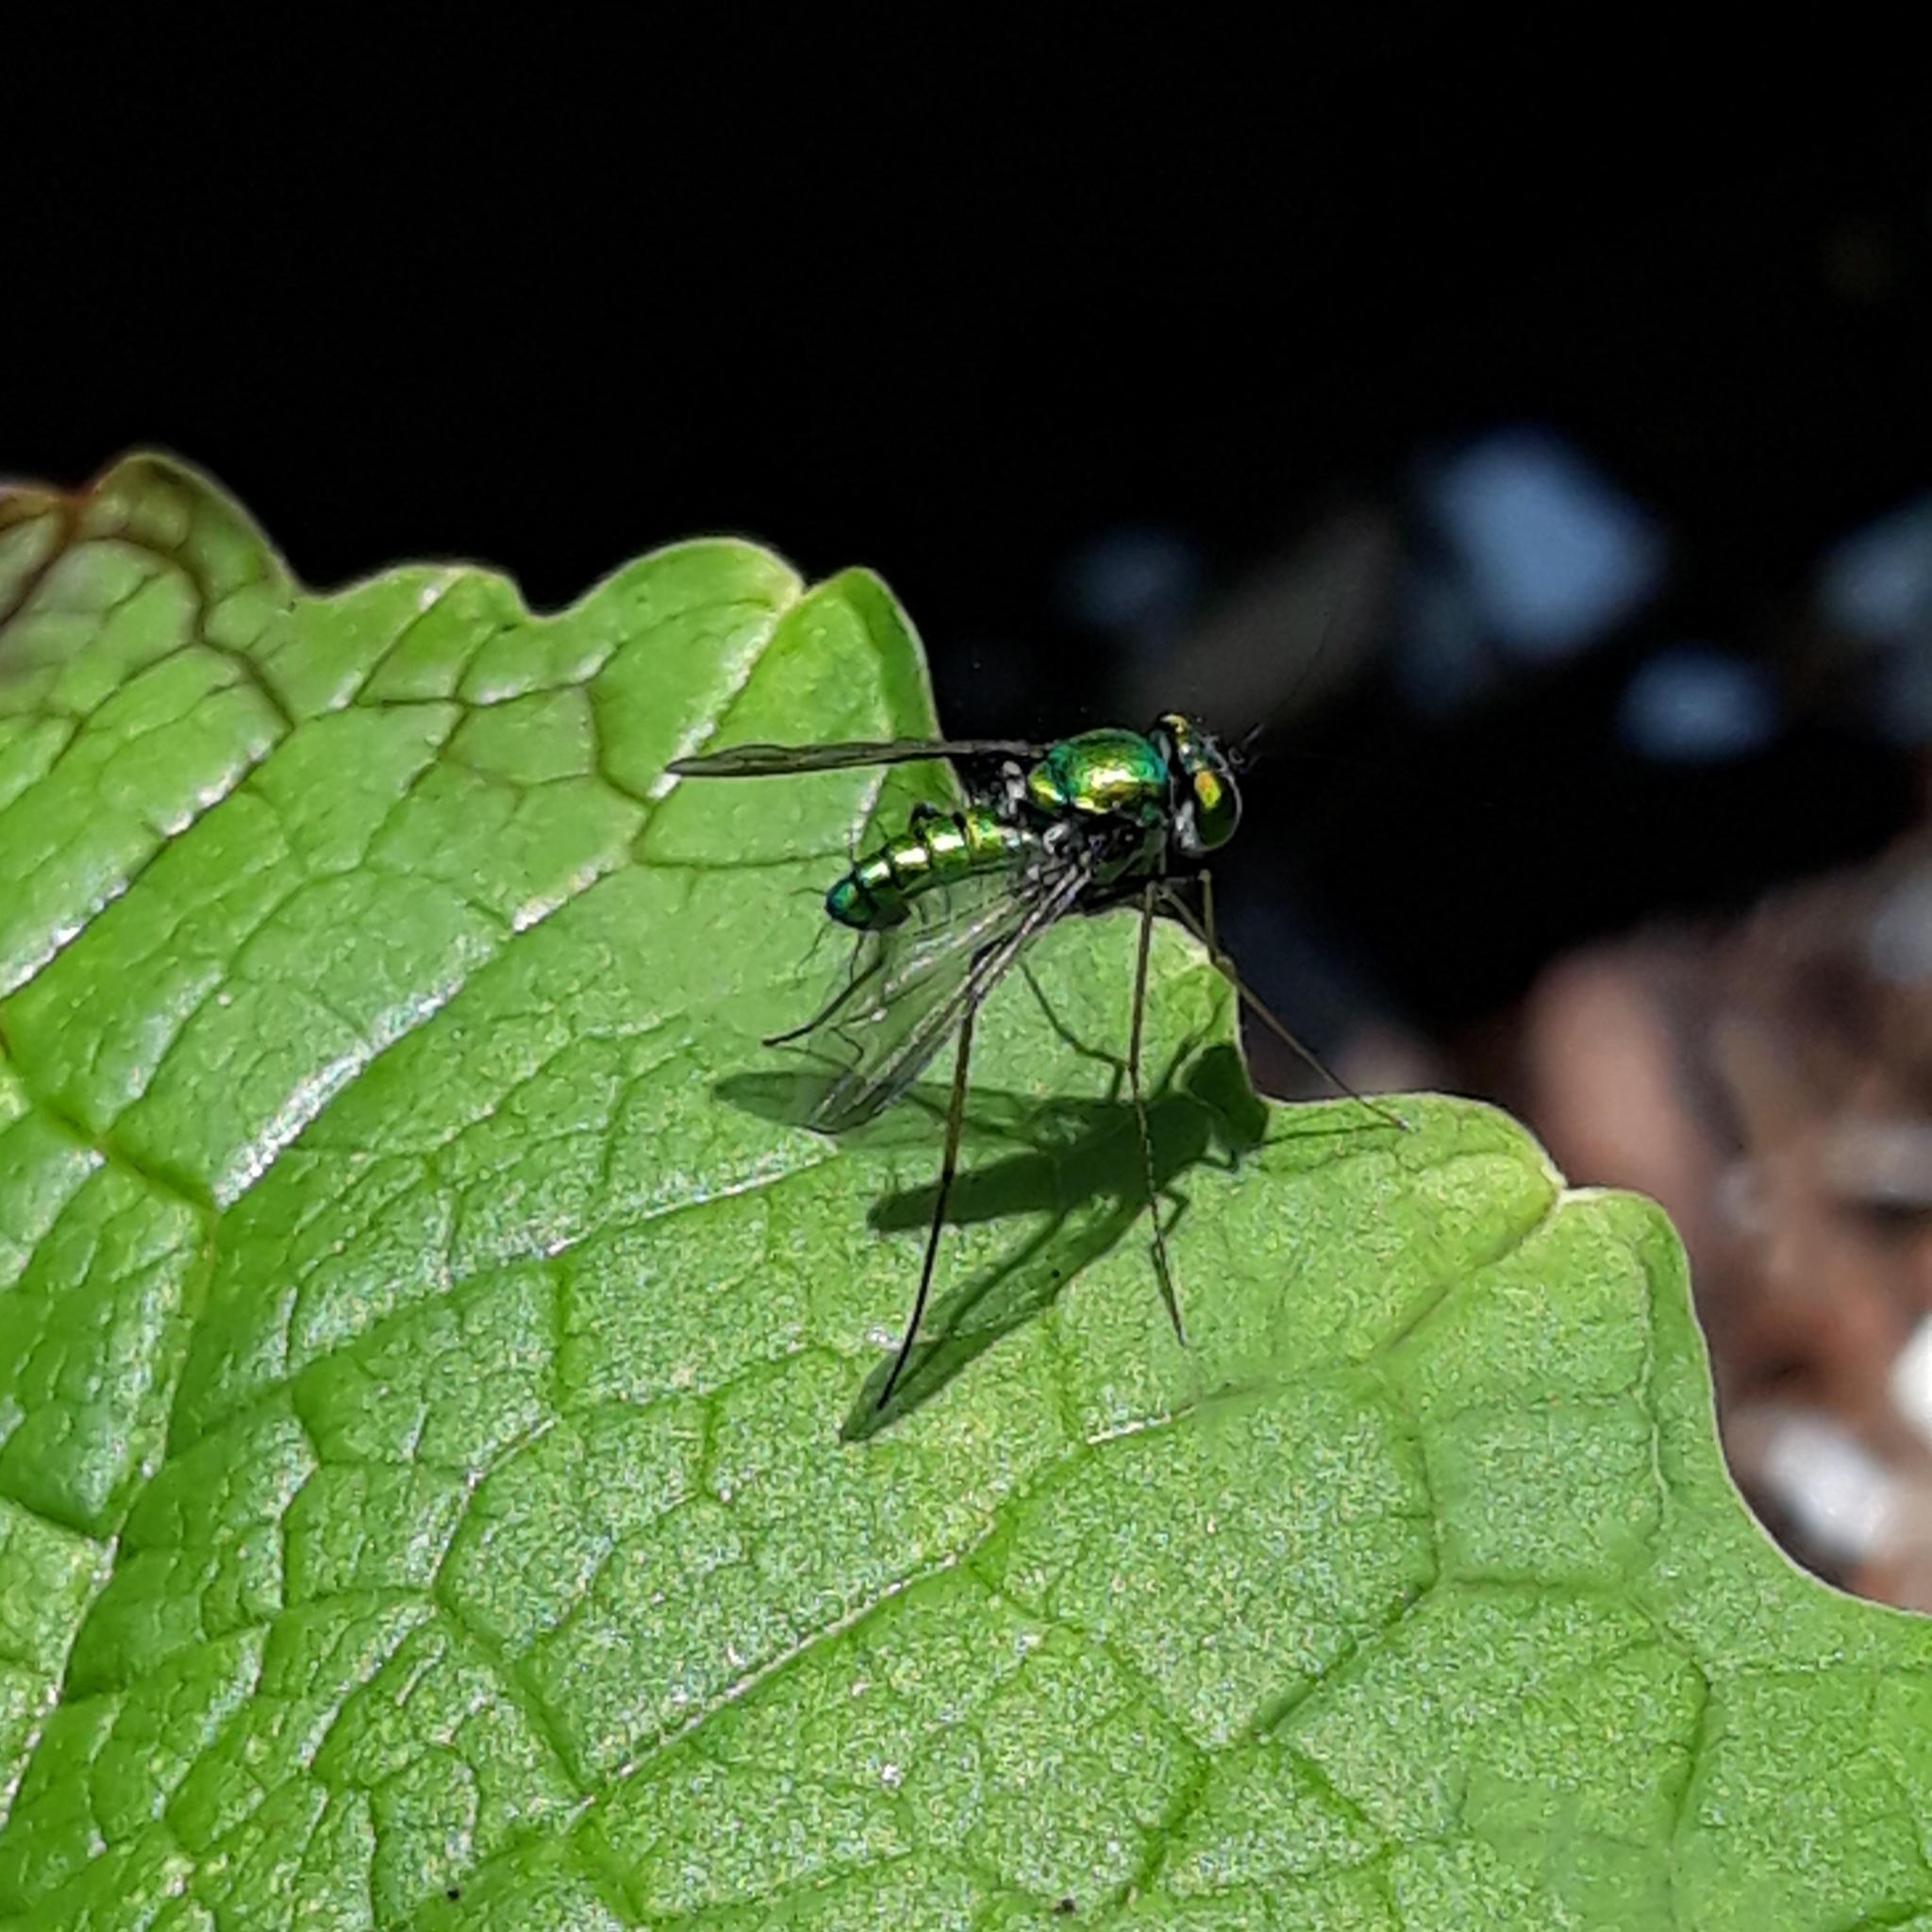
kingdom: Animalia
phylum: Arthropoda
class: Insecta
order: Diptera
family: Dolichopodidae
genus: Condylostylus
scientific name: Condylostylus comatus
